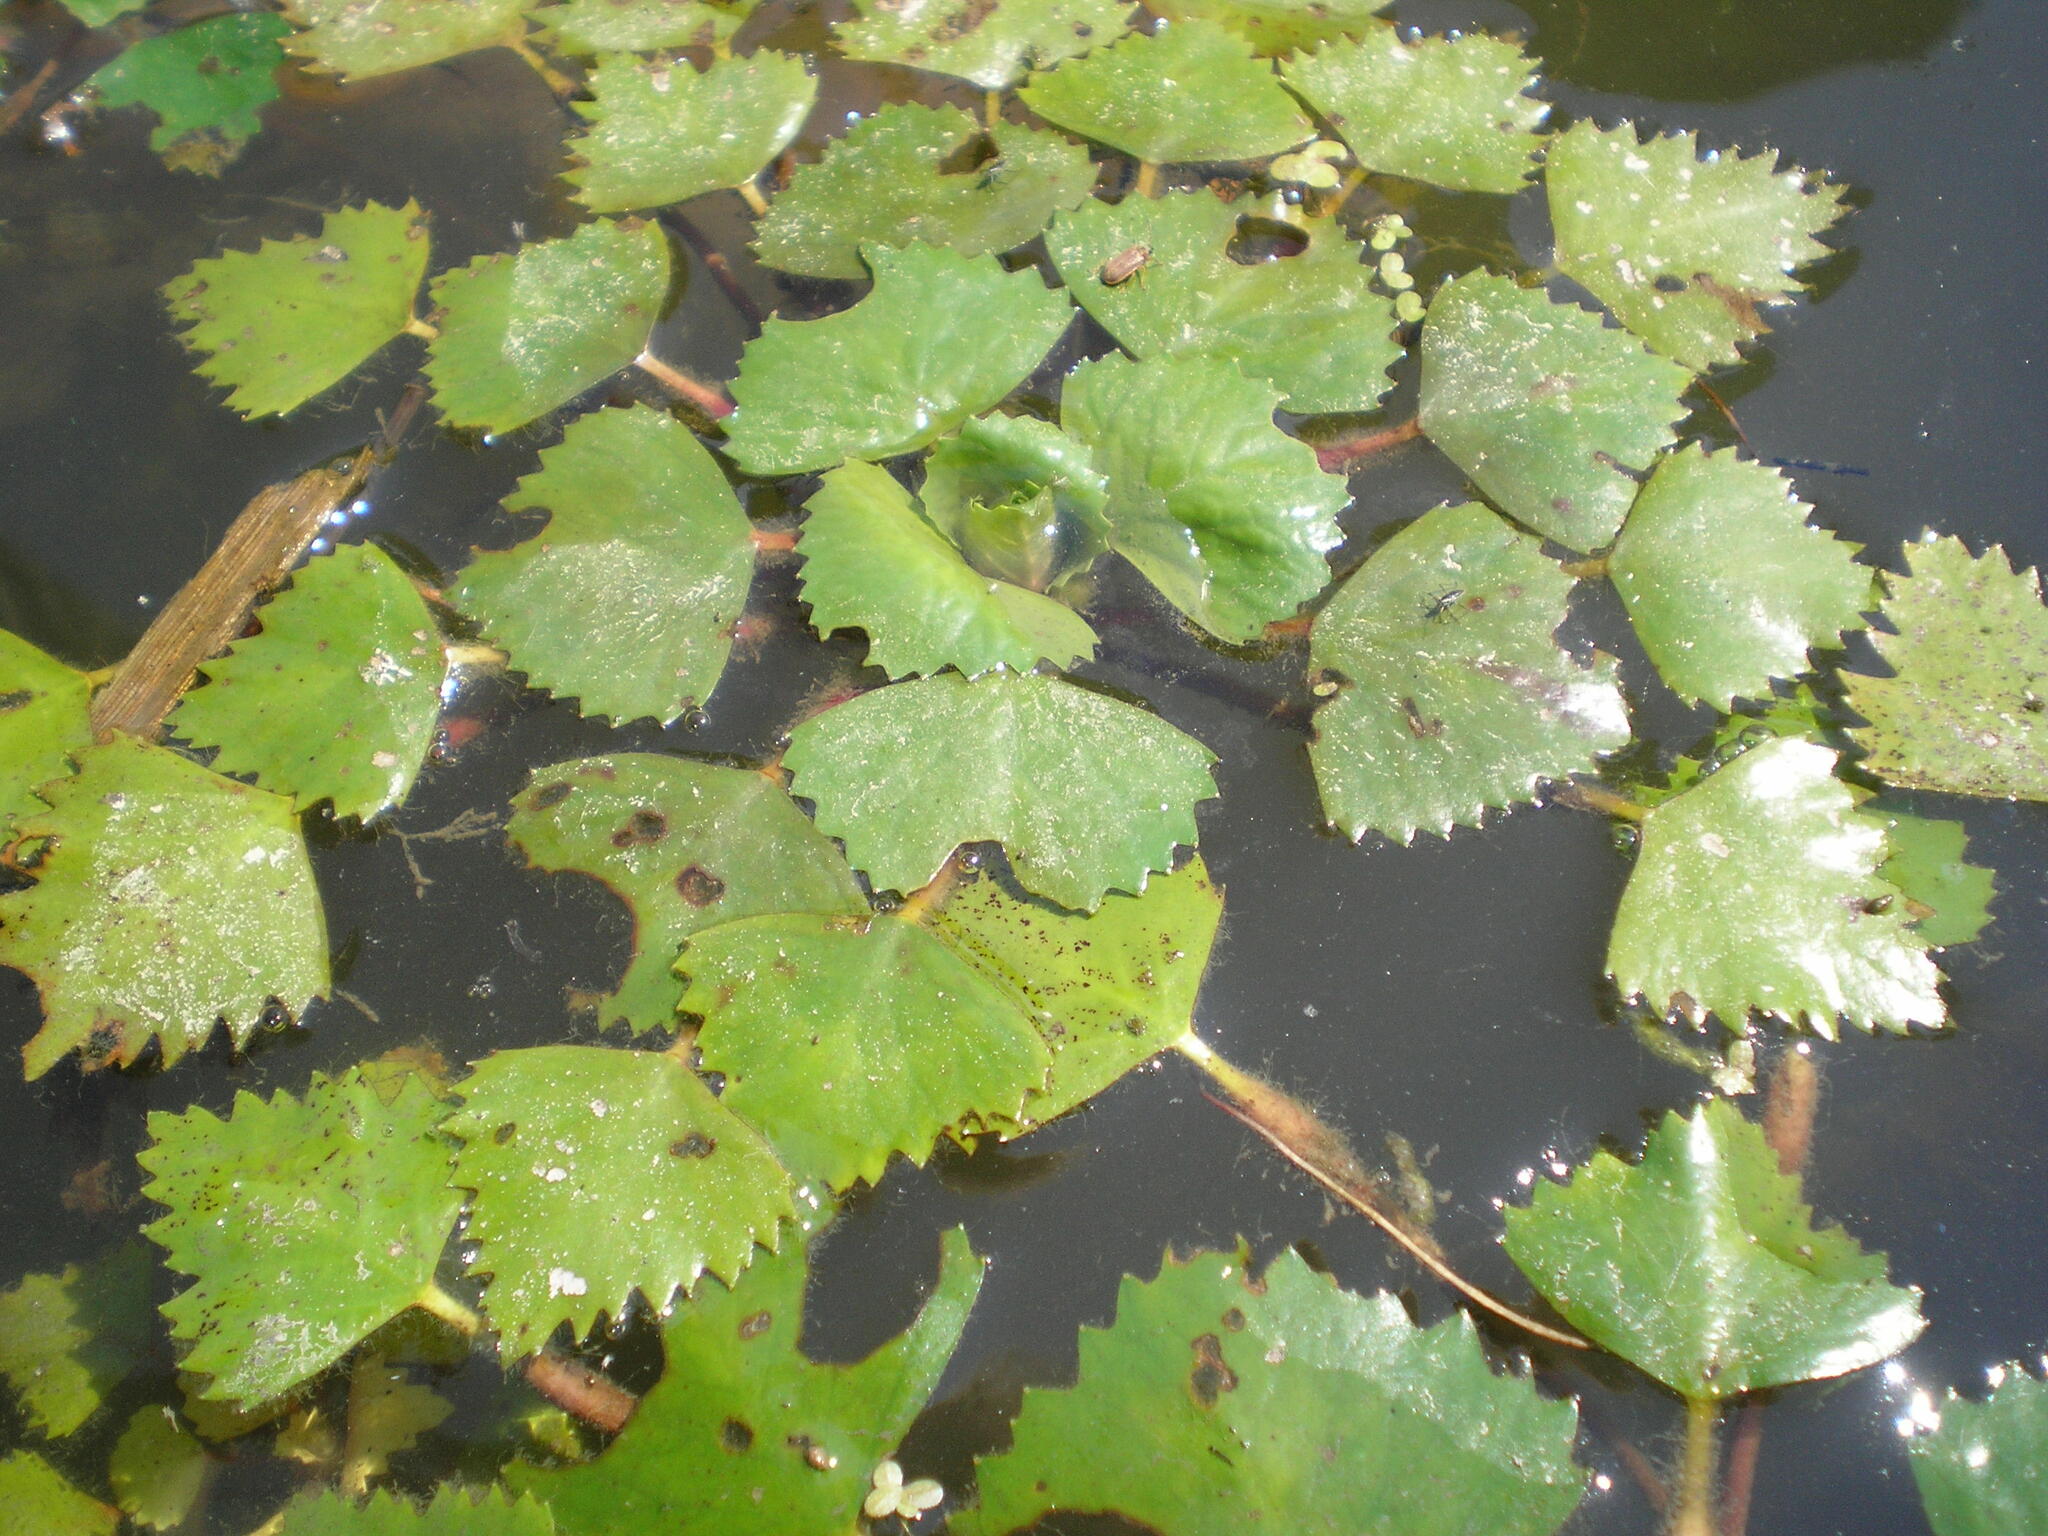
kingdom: Plantae
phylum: Tracheophyta
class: Magnoliopsida
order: Myrtales
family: Lythraceae
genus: Trapa
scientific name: Trapa natans
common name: Water chestnut
